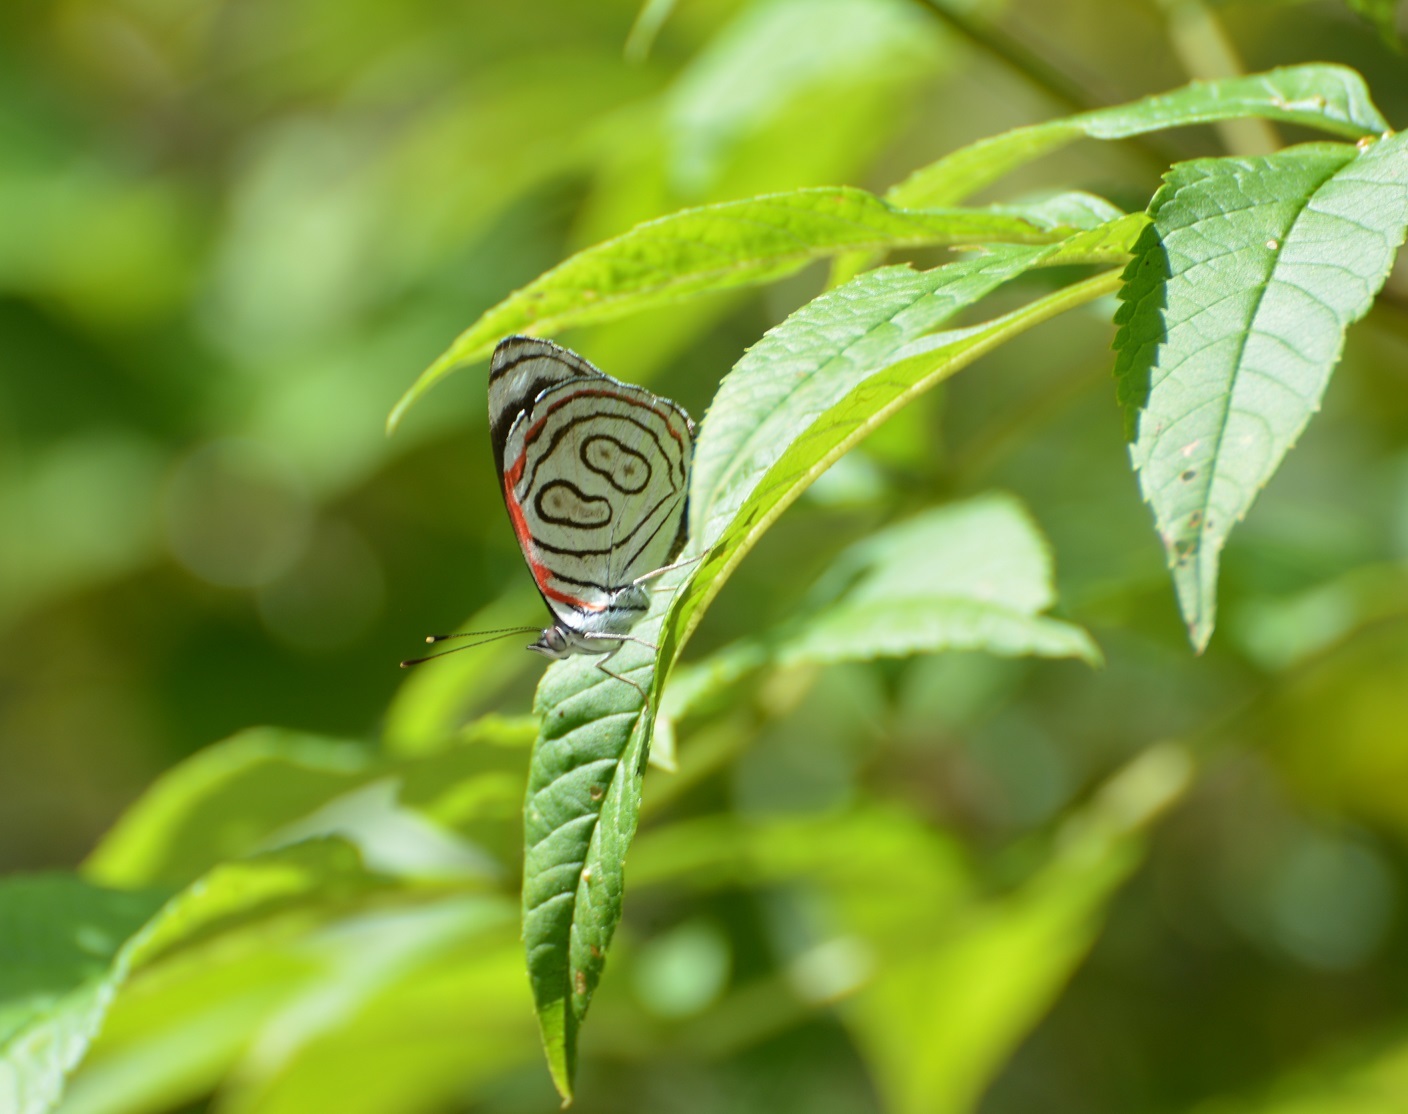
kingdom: Animalia
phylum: Arthropoda
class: Insecta
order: Lepidoptera
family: Nymphalidae
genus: Diaethria
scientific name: Diaethria astala
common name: Navy eighty-eight
